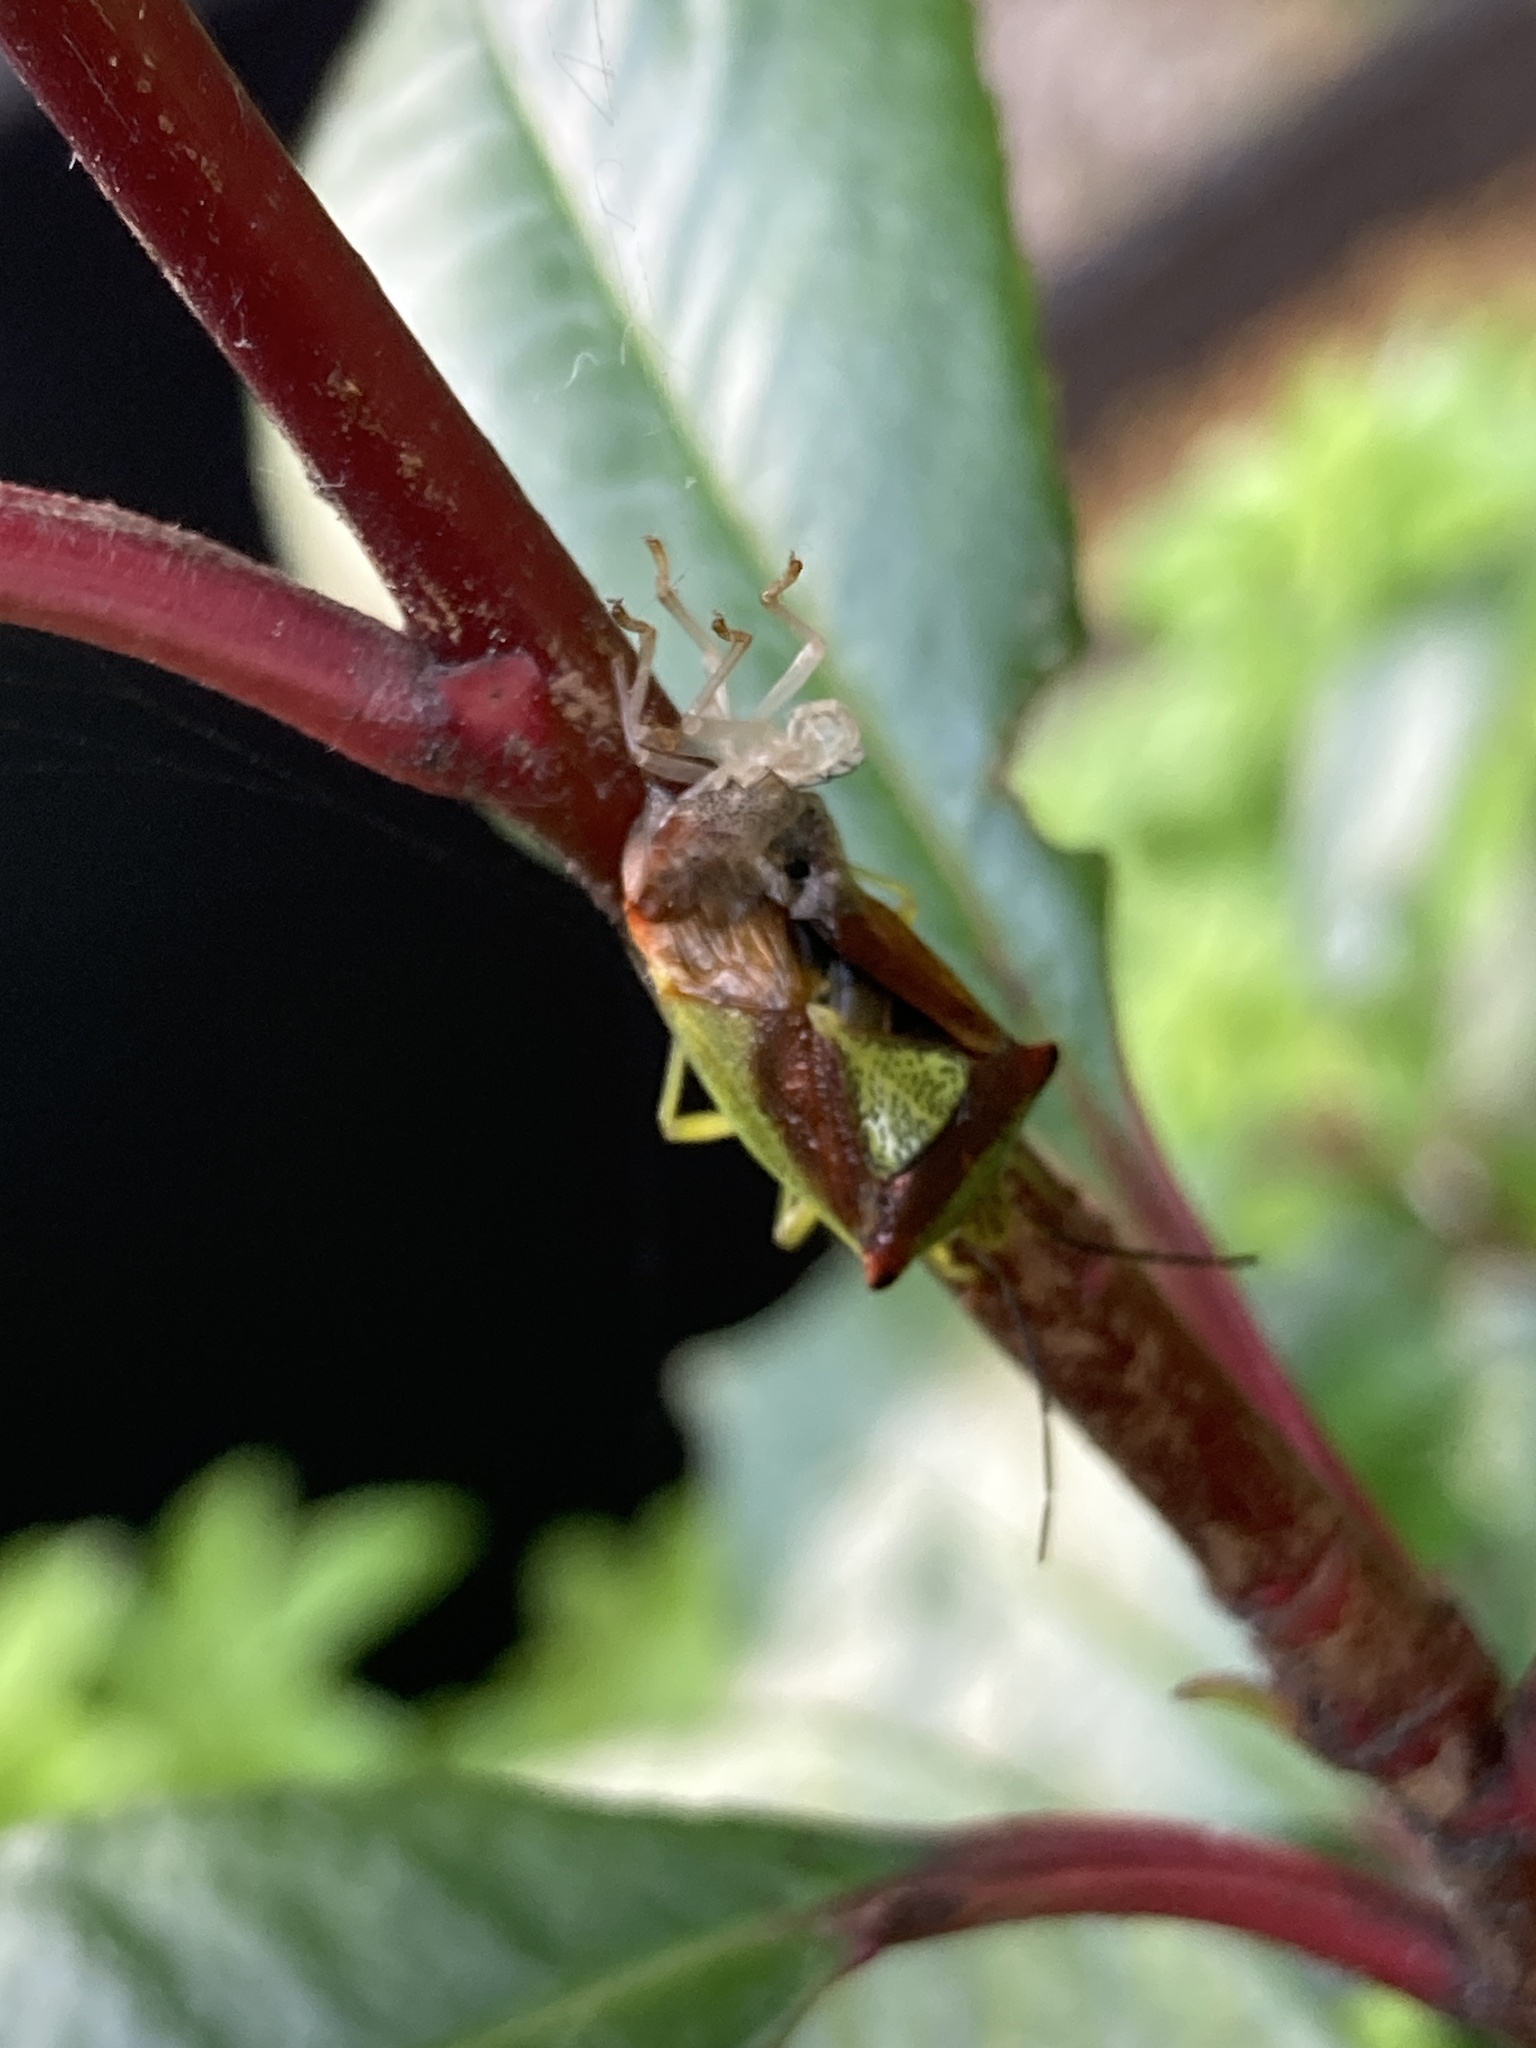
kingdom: Animalia
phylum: Arthropoda
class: Insecta
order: Hemiptera
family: Acanthosomatidae
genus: Acanthosoma
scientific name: Acanthosoma haemorrhoidale
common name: Hawthorn shieldbug
